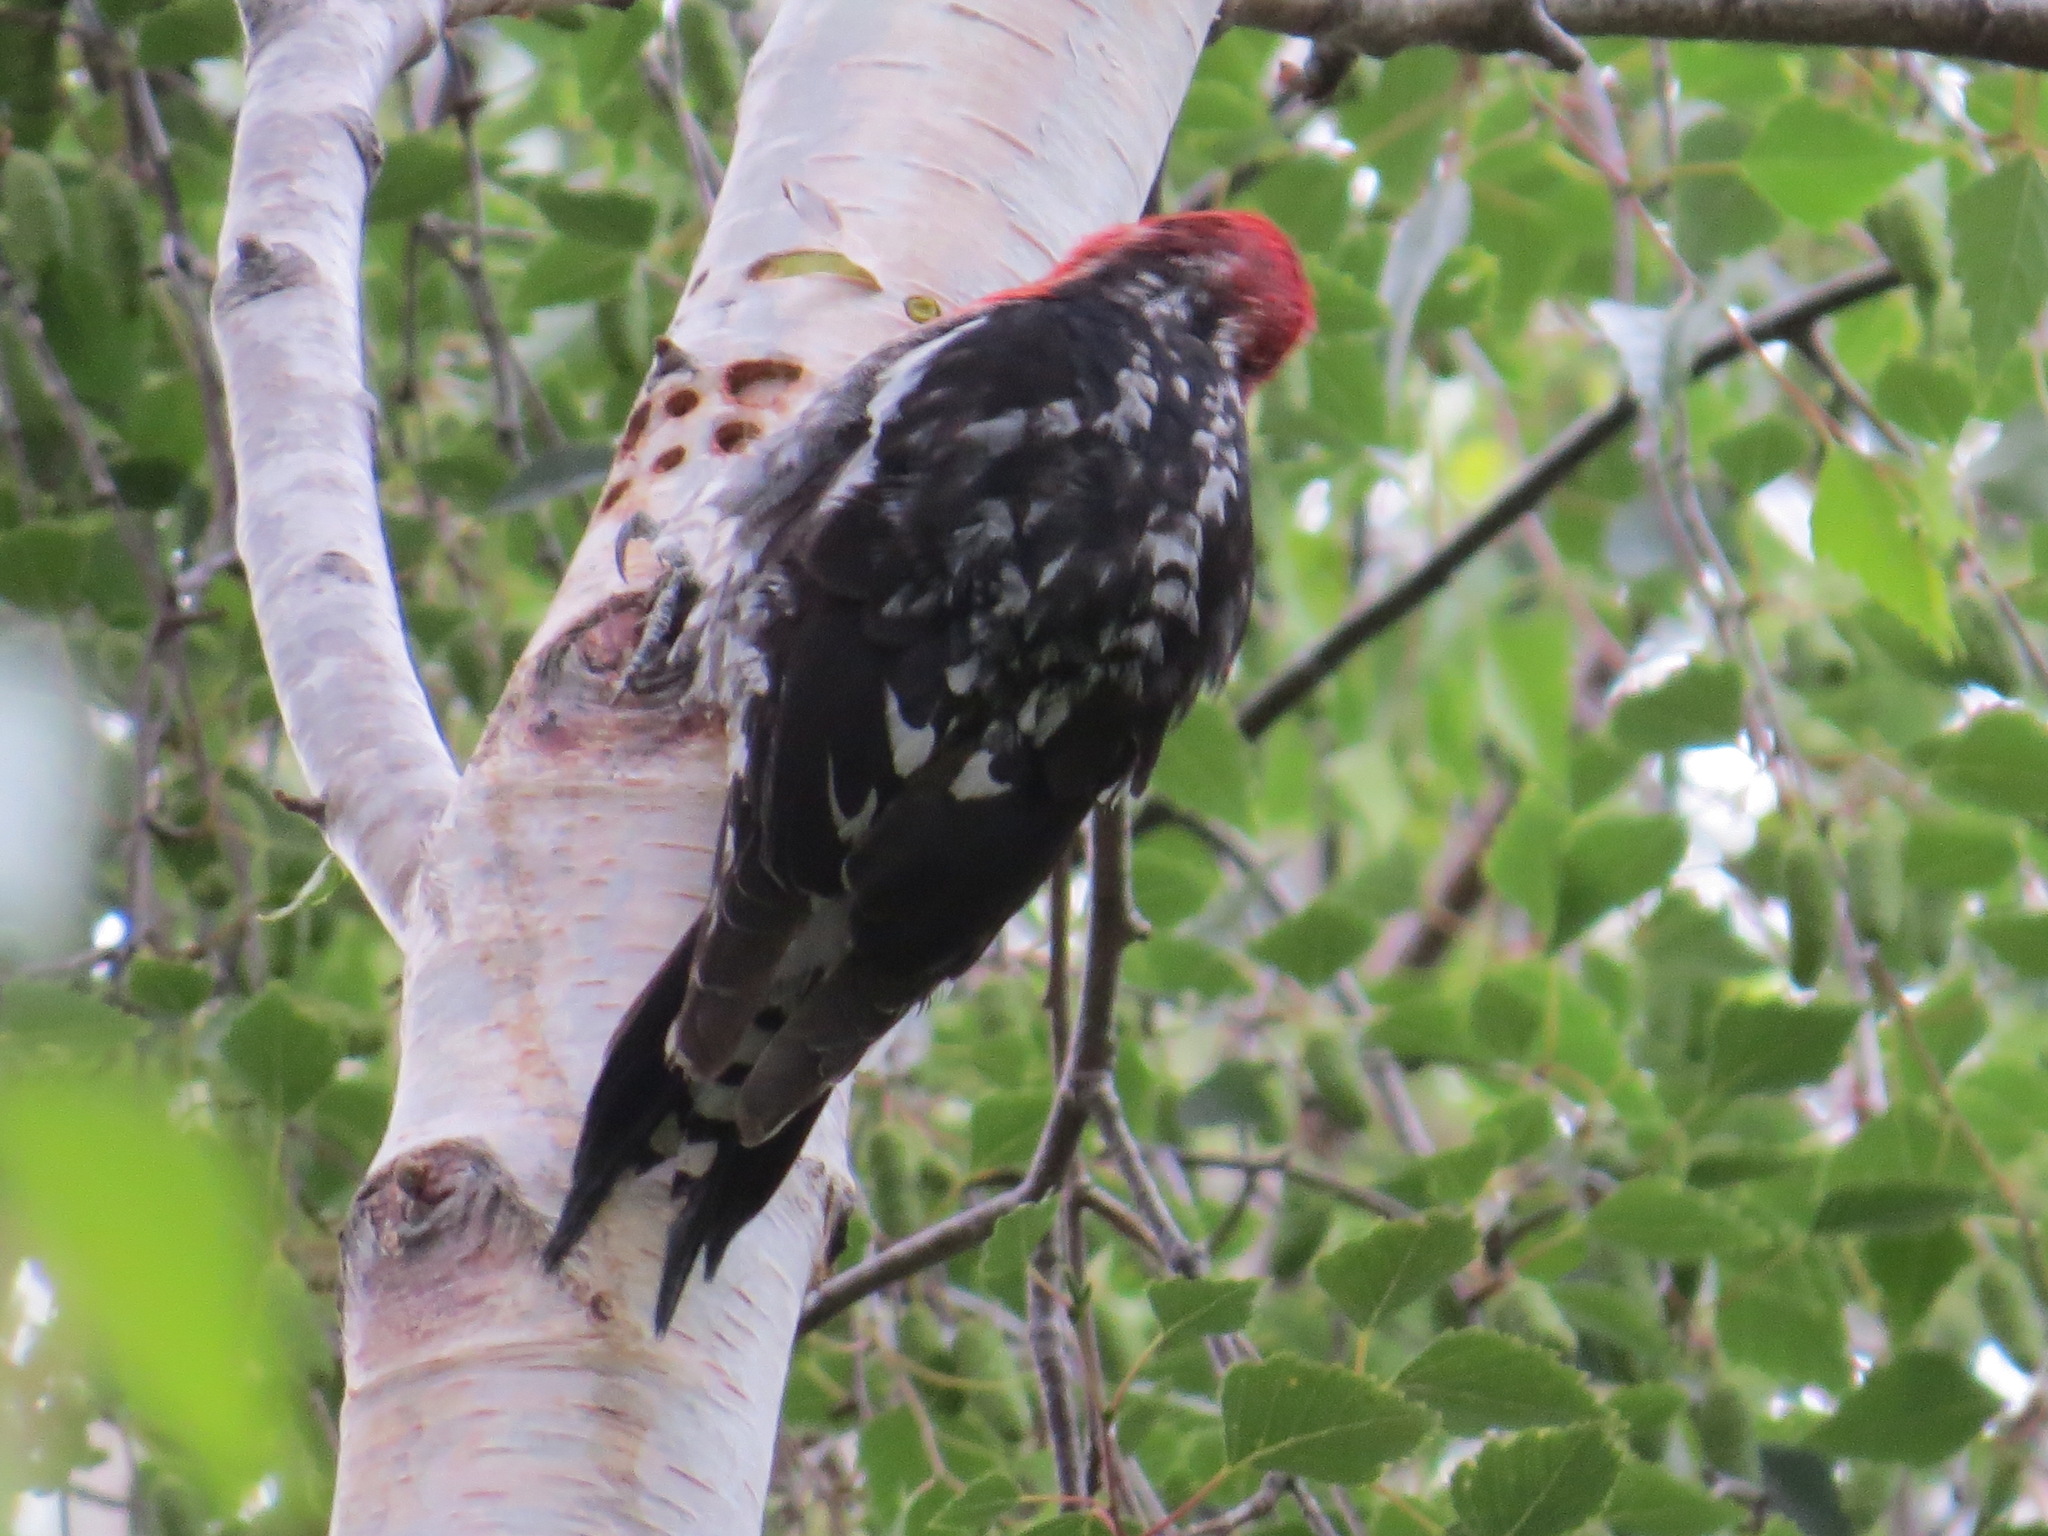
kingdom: Animalia
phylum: Chordata
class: Aves
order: Piciformes
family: Picidae
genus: Sphyrapicus
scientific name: Sphyrapicus ruber
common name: Red-breasted sapsucker
